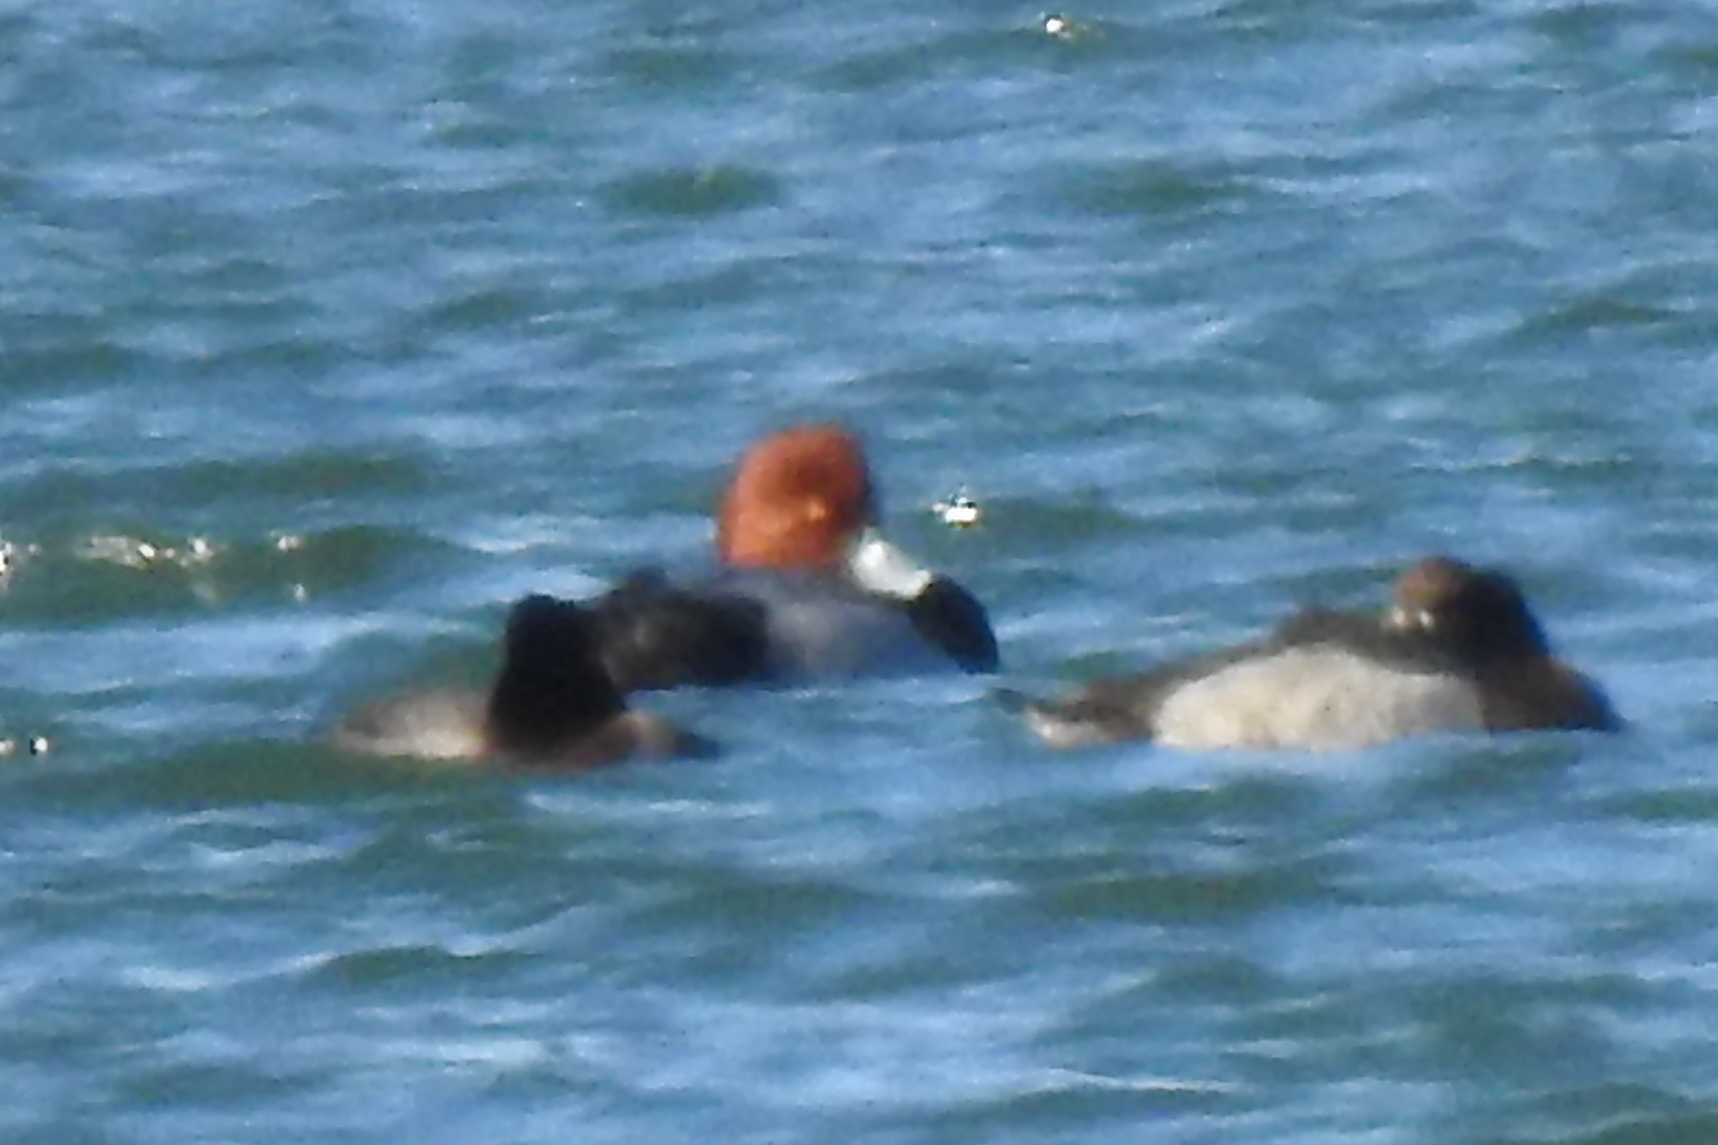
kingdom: Animalia
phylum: Chordata
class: Aves
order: Anseriformes
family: Anatidae
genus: Aythya
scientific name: Aythya americana
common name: Redhead
